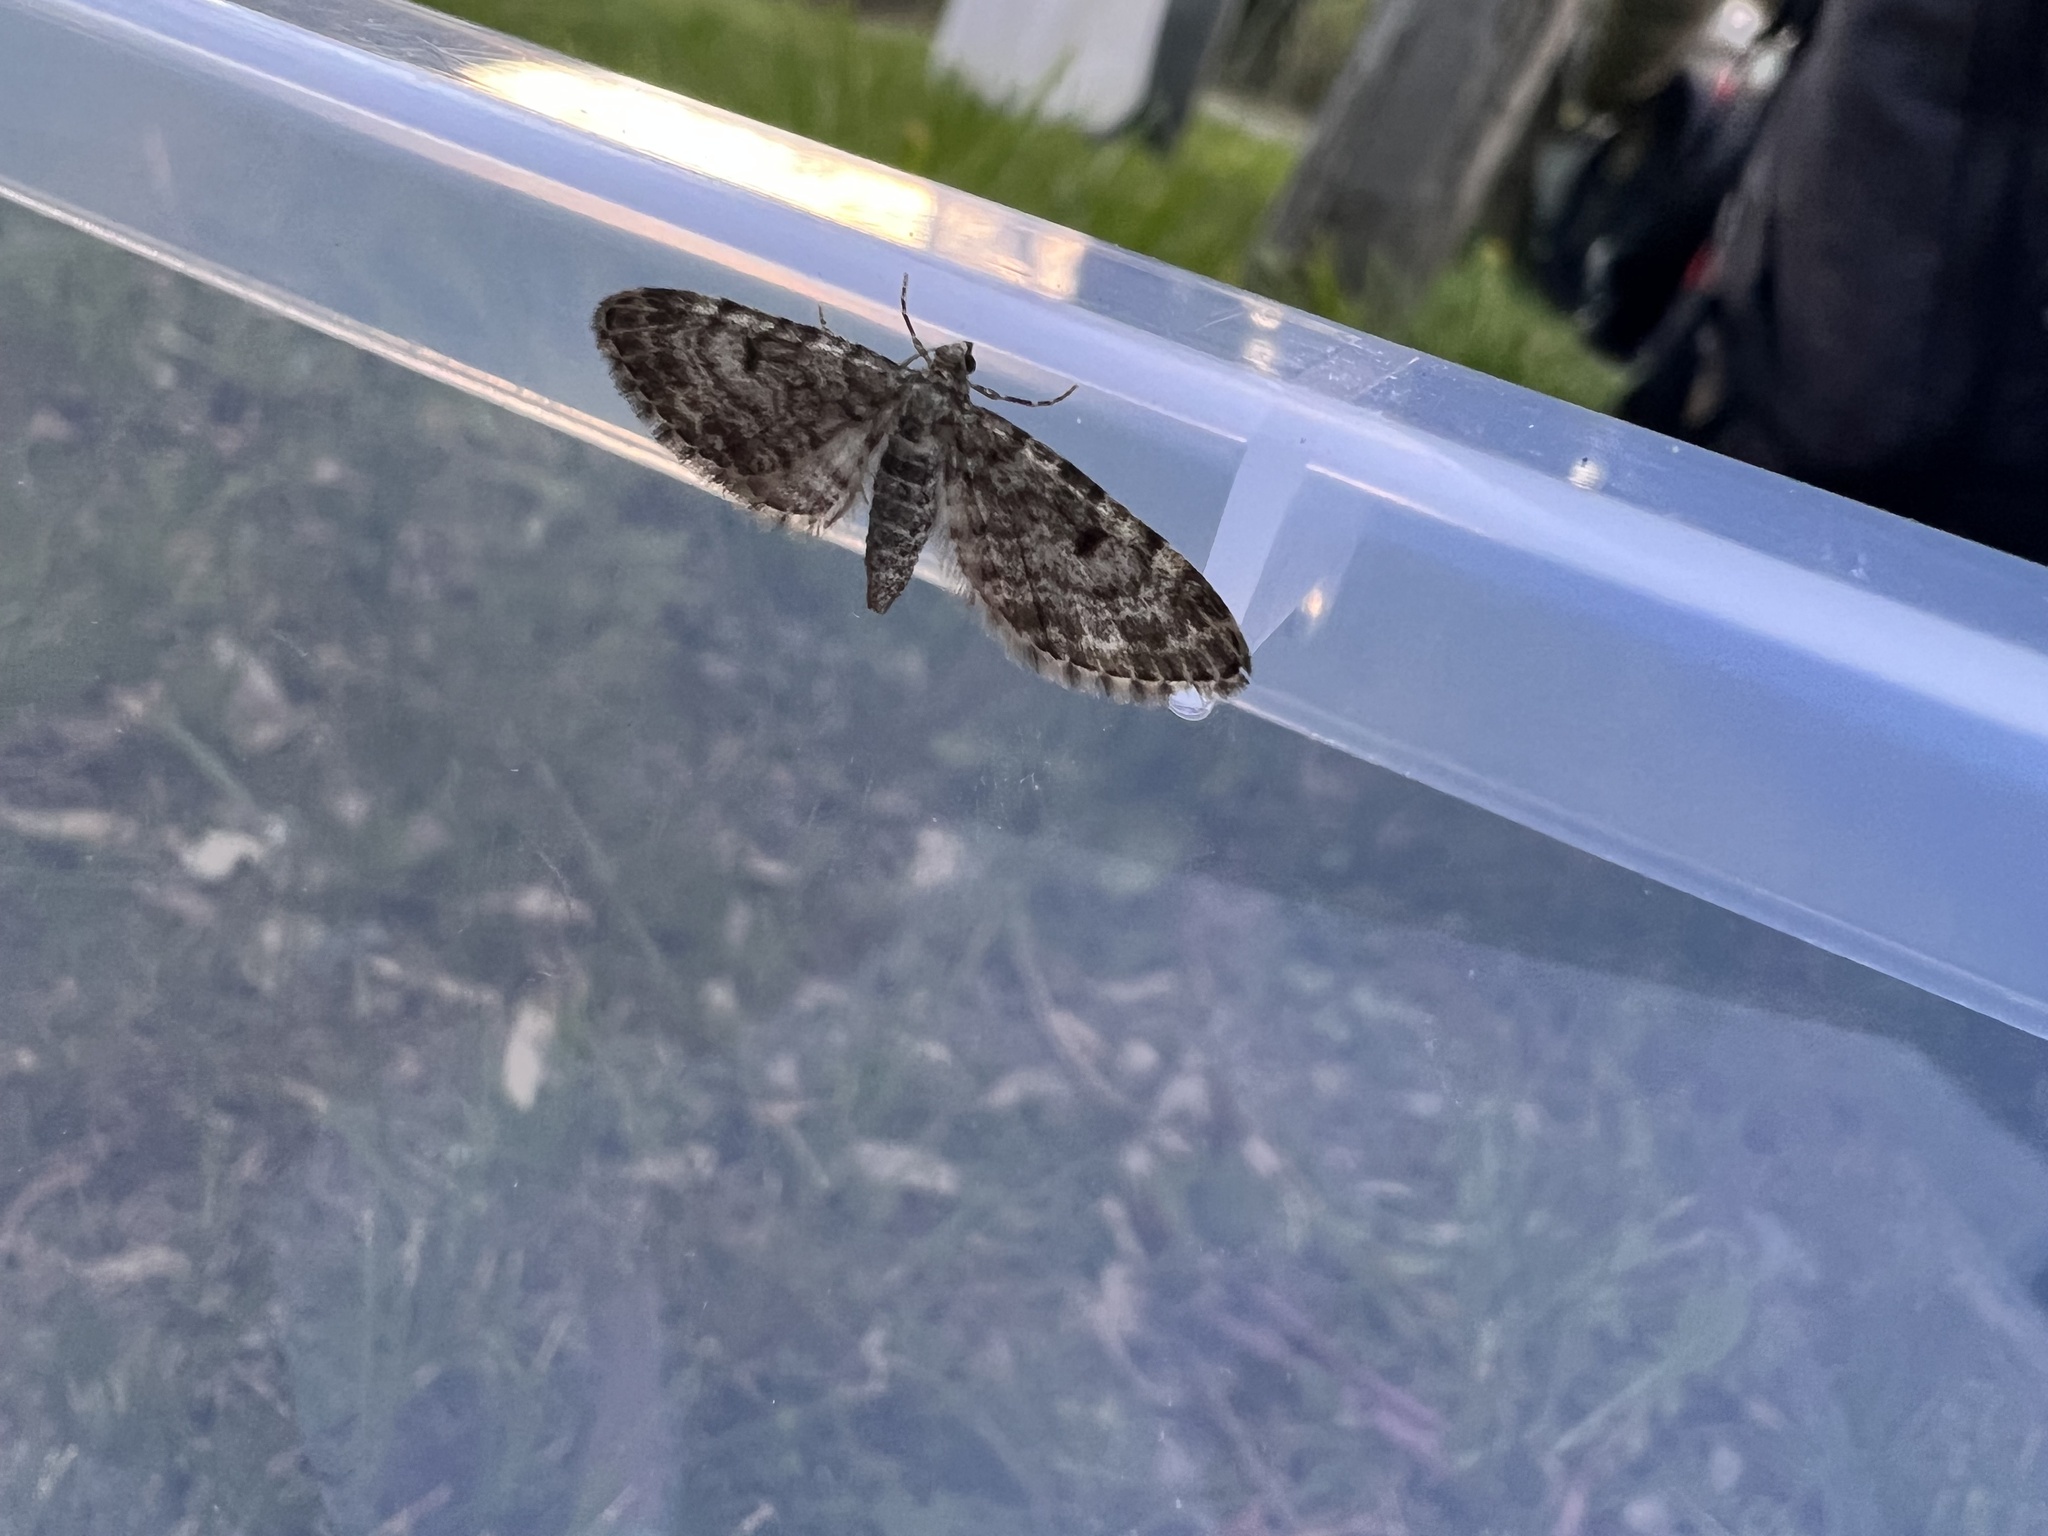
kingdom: Animalia
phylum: Arthropoda
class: Insecta
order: Lepidoptera
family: Geometridae
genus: Eupithecia
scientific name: Eupithecia tantillaria
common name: Dwarf pug
